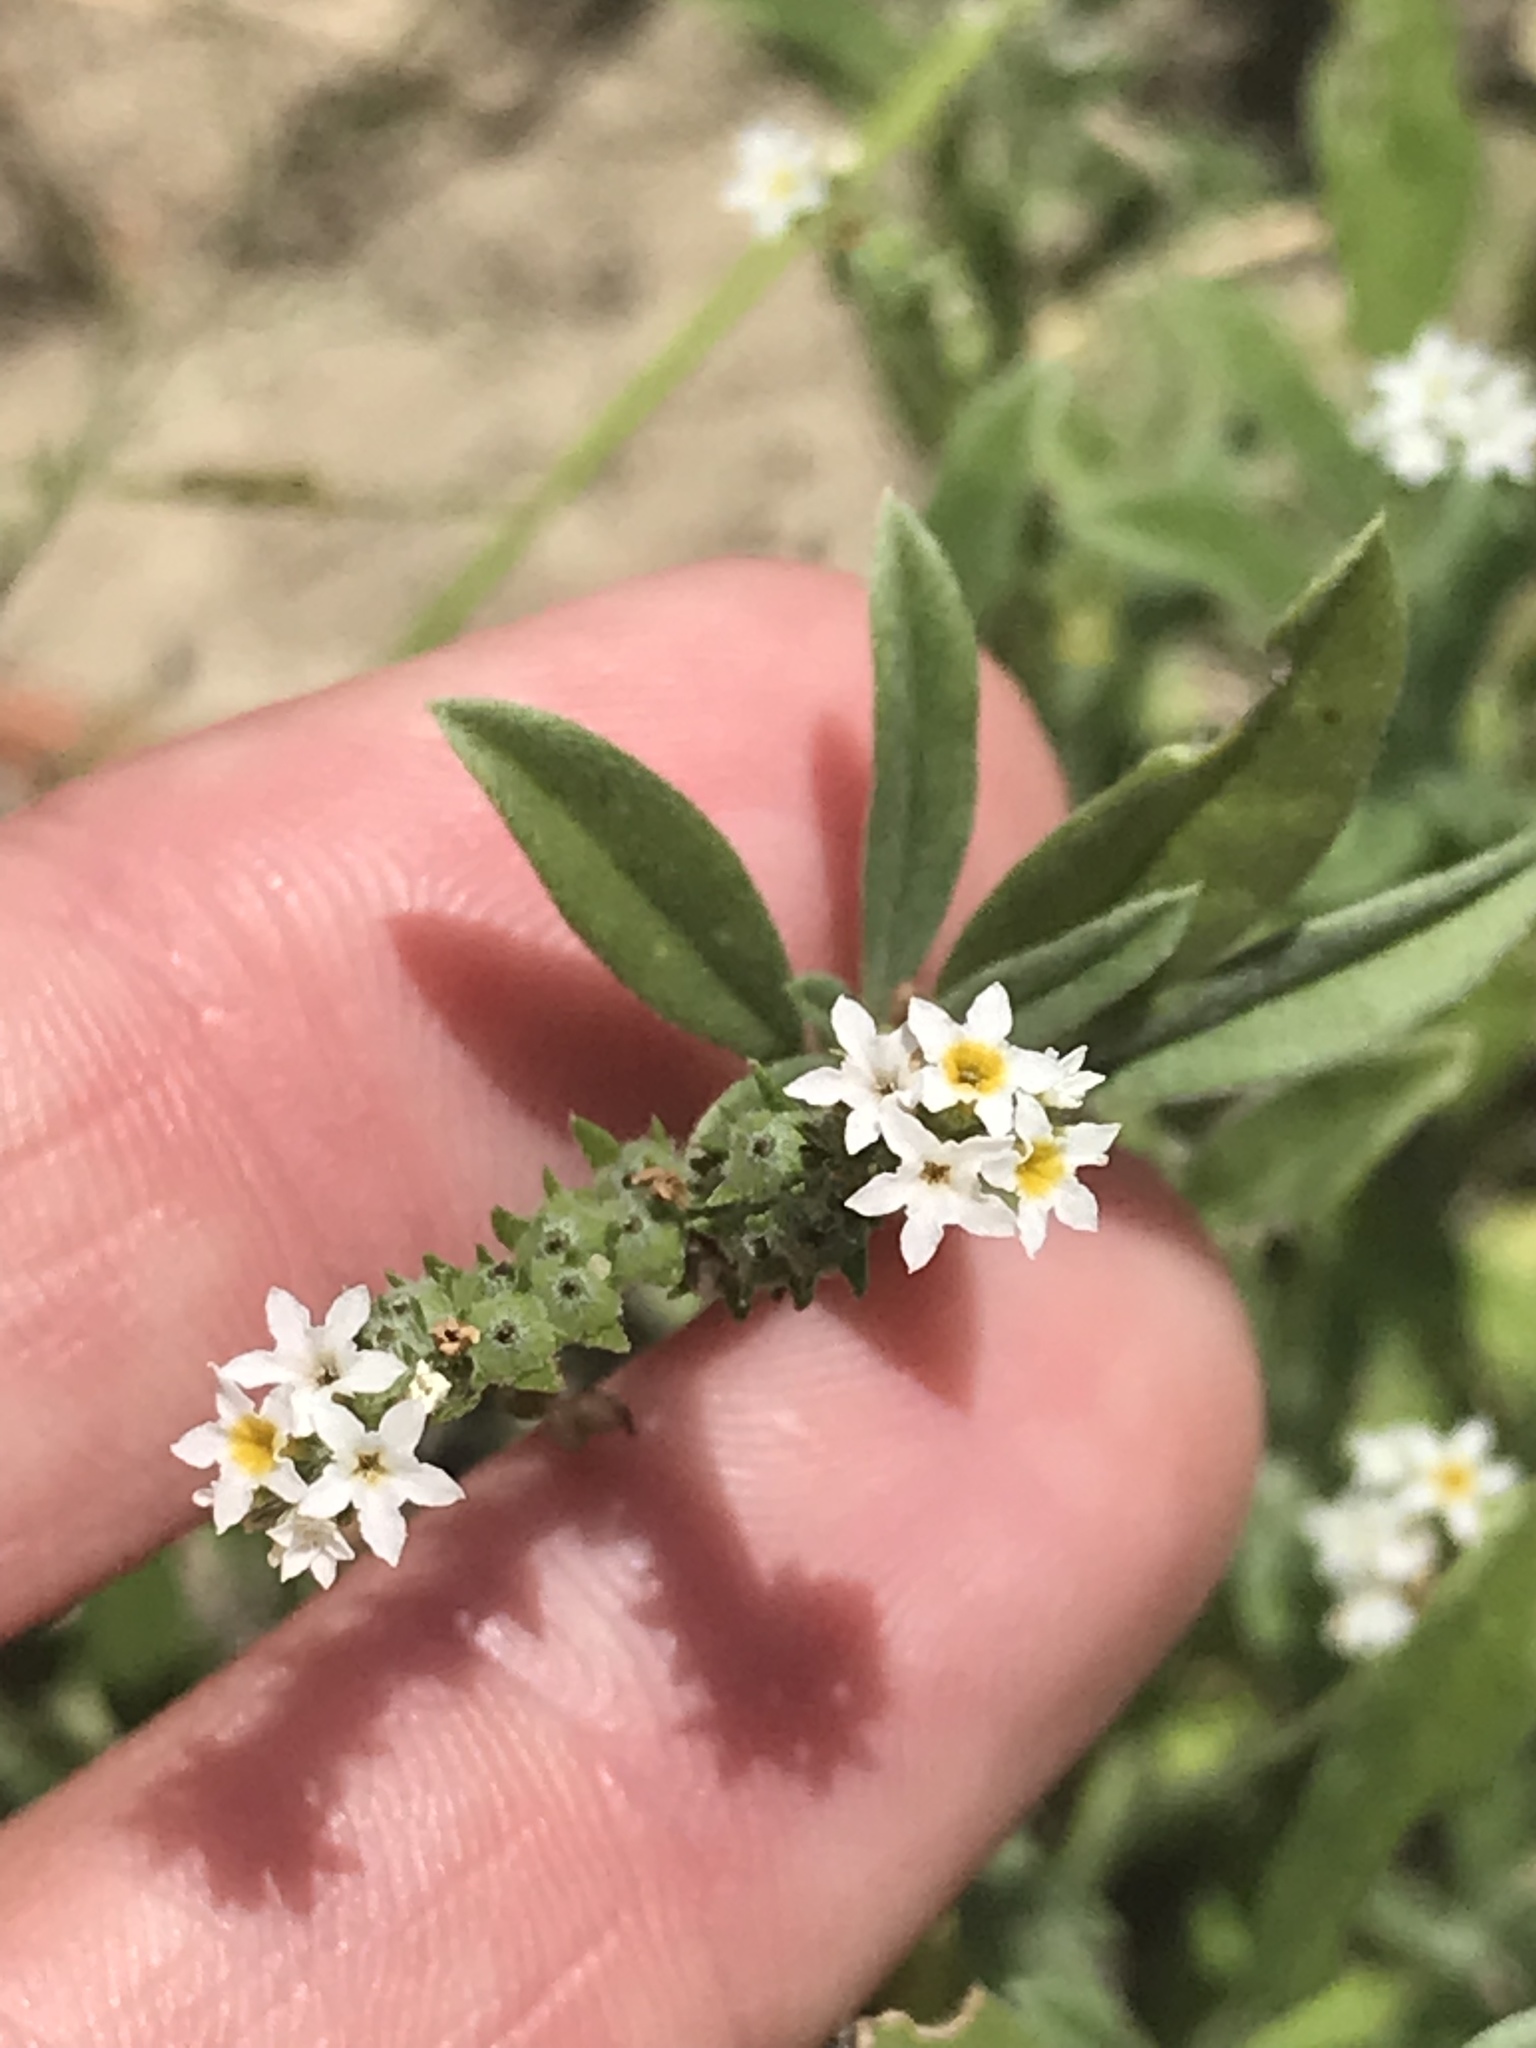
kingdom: Plantae
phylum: Tracheophyta
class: Magnoliopsida
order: Boraginales
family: Heliotropiaceae
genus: Euploca
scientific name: Euploca procumbens
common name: Fourspike heliotrope
